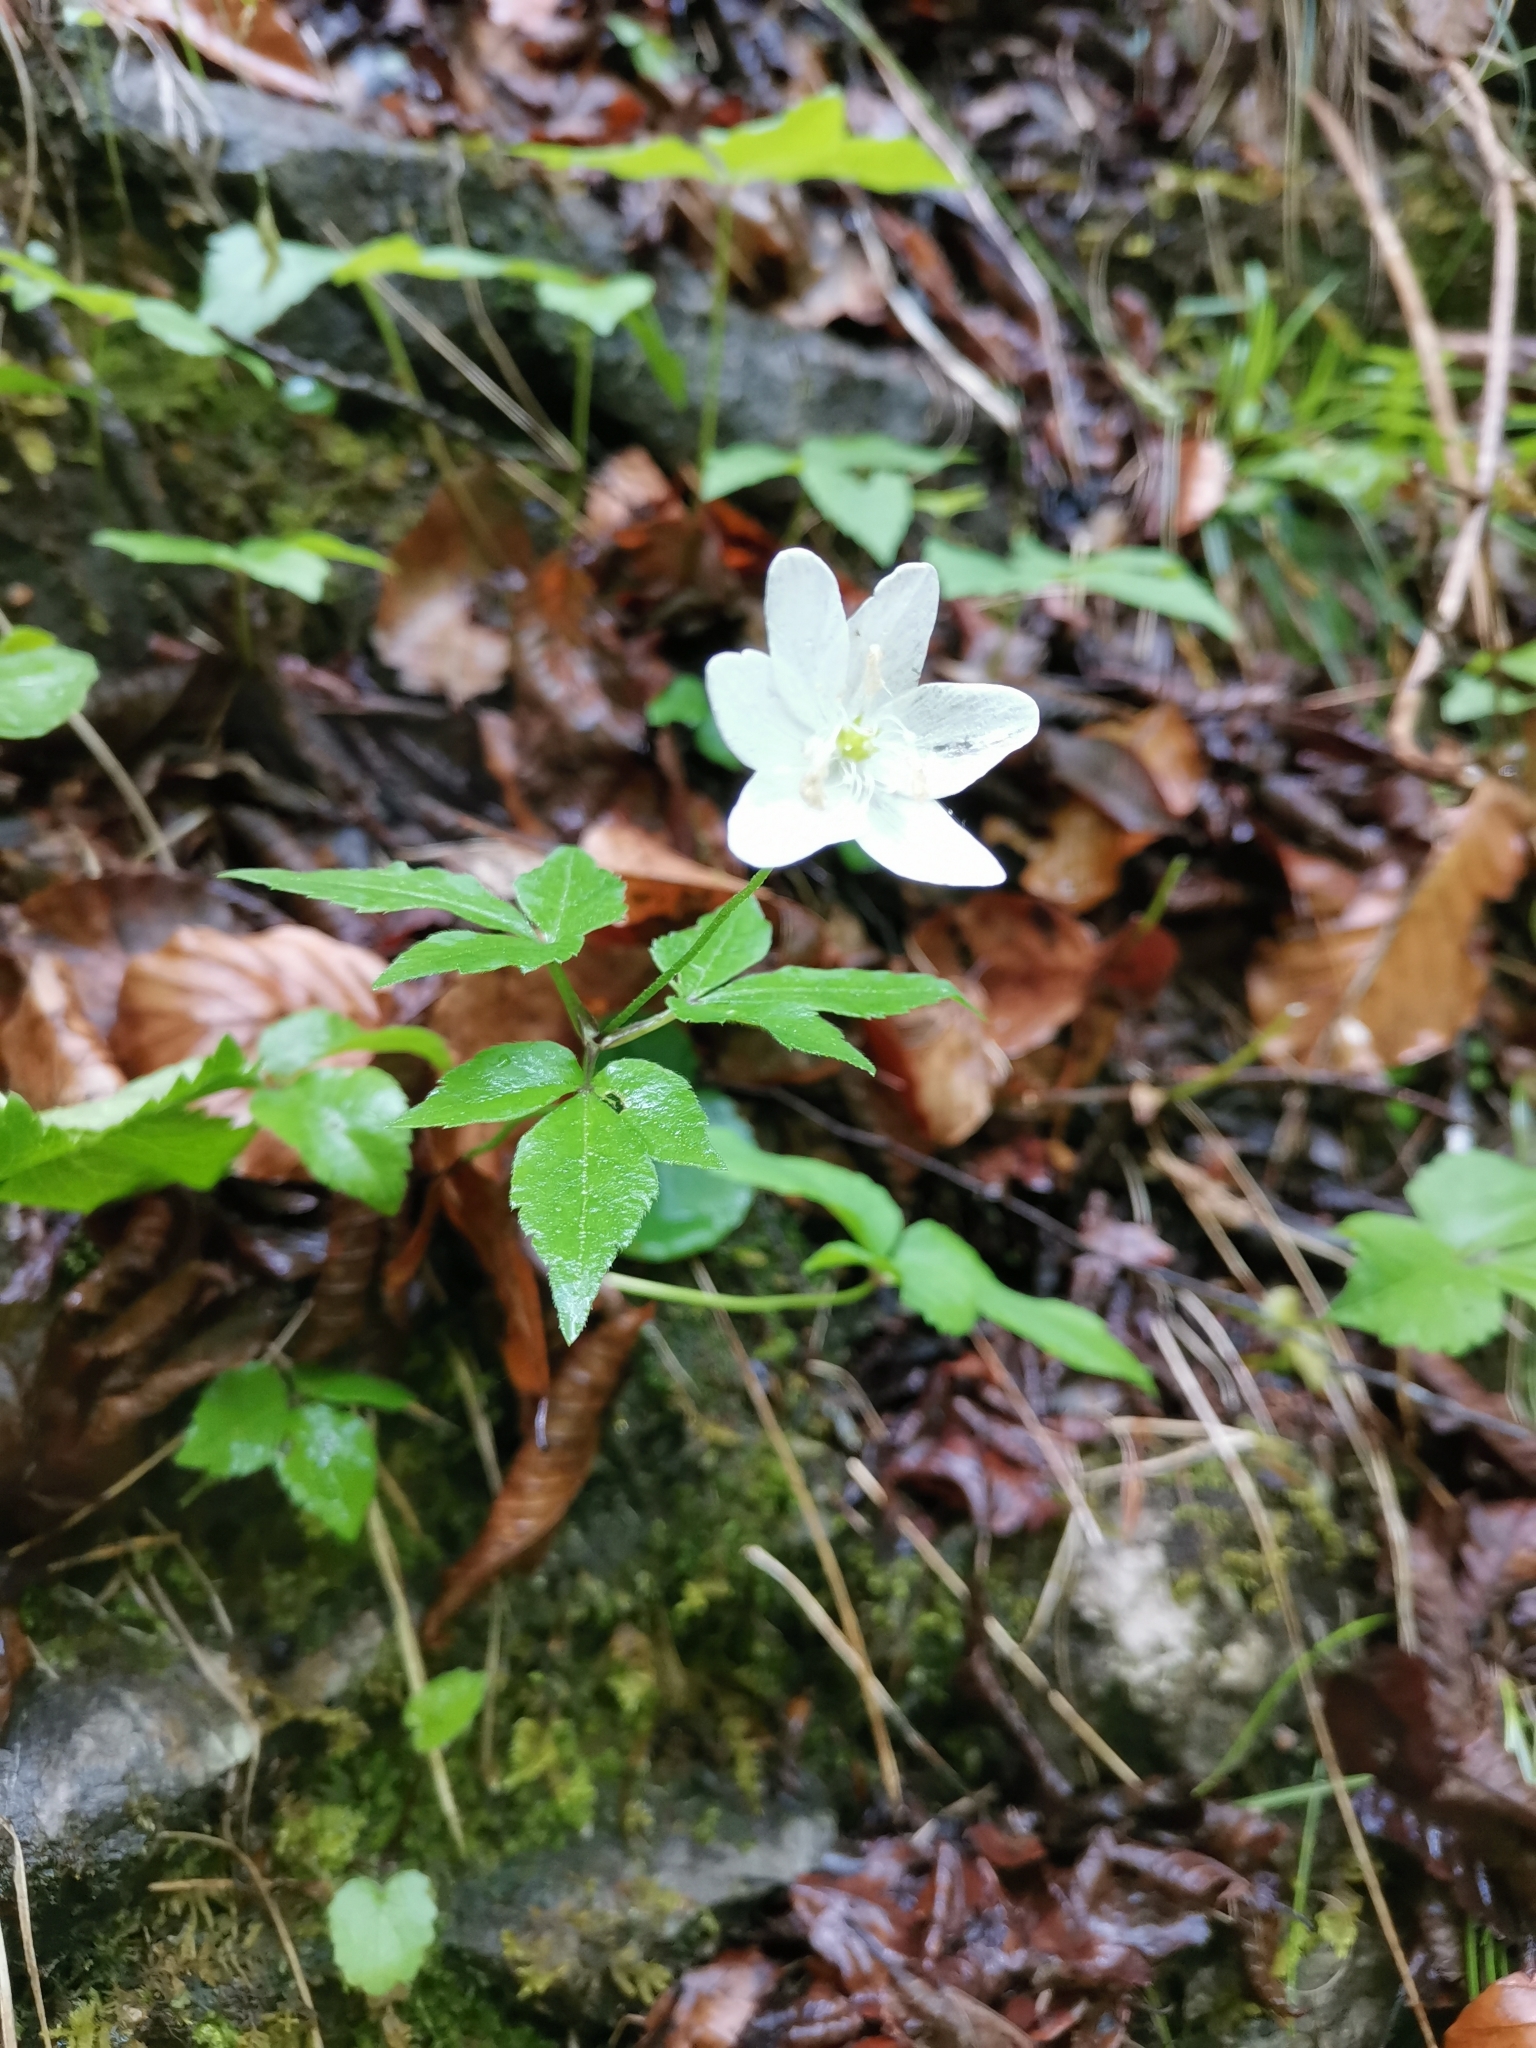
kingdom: Plantae
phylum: Tracheophyta
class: Magnoliopsida
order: Ranunculales
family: Ranunculaceae
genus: Anemone
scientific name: Anemone trifolia
